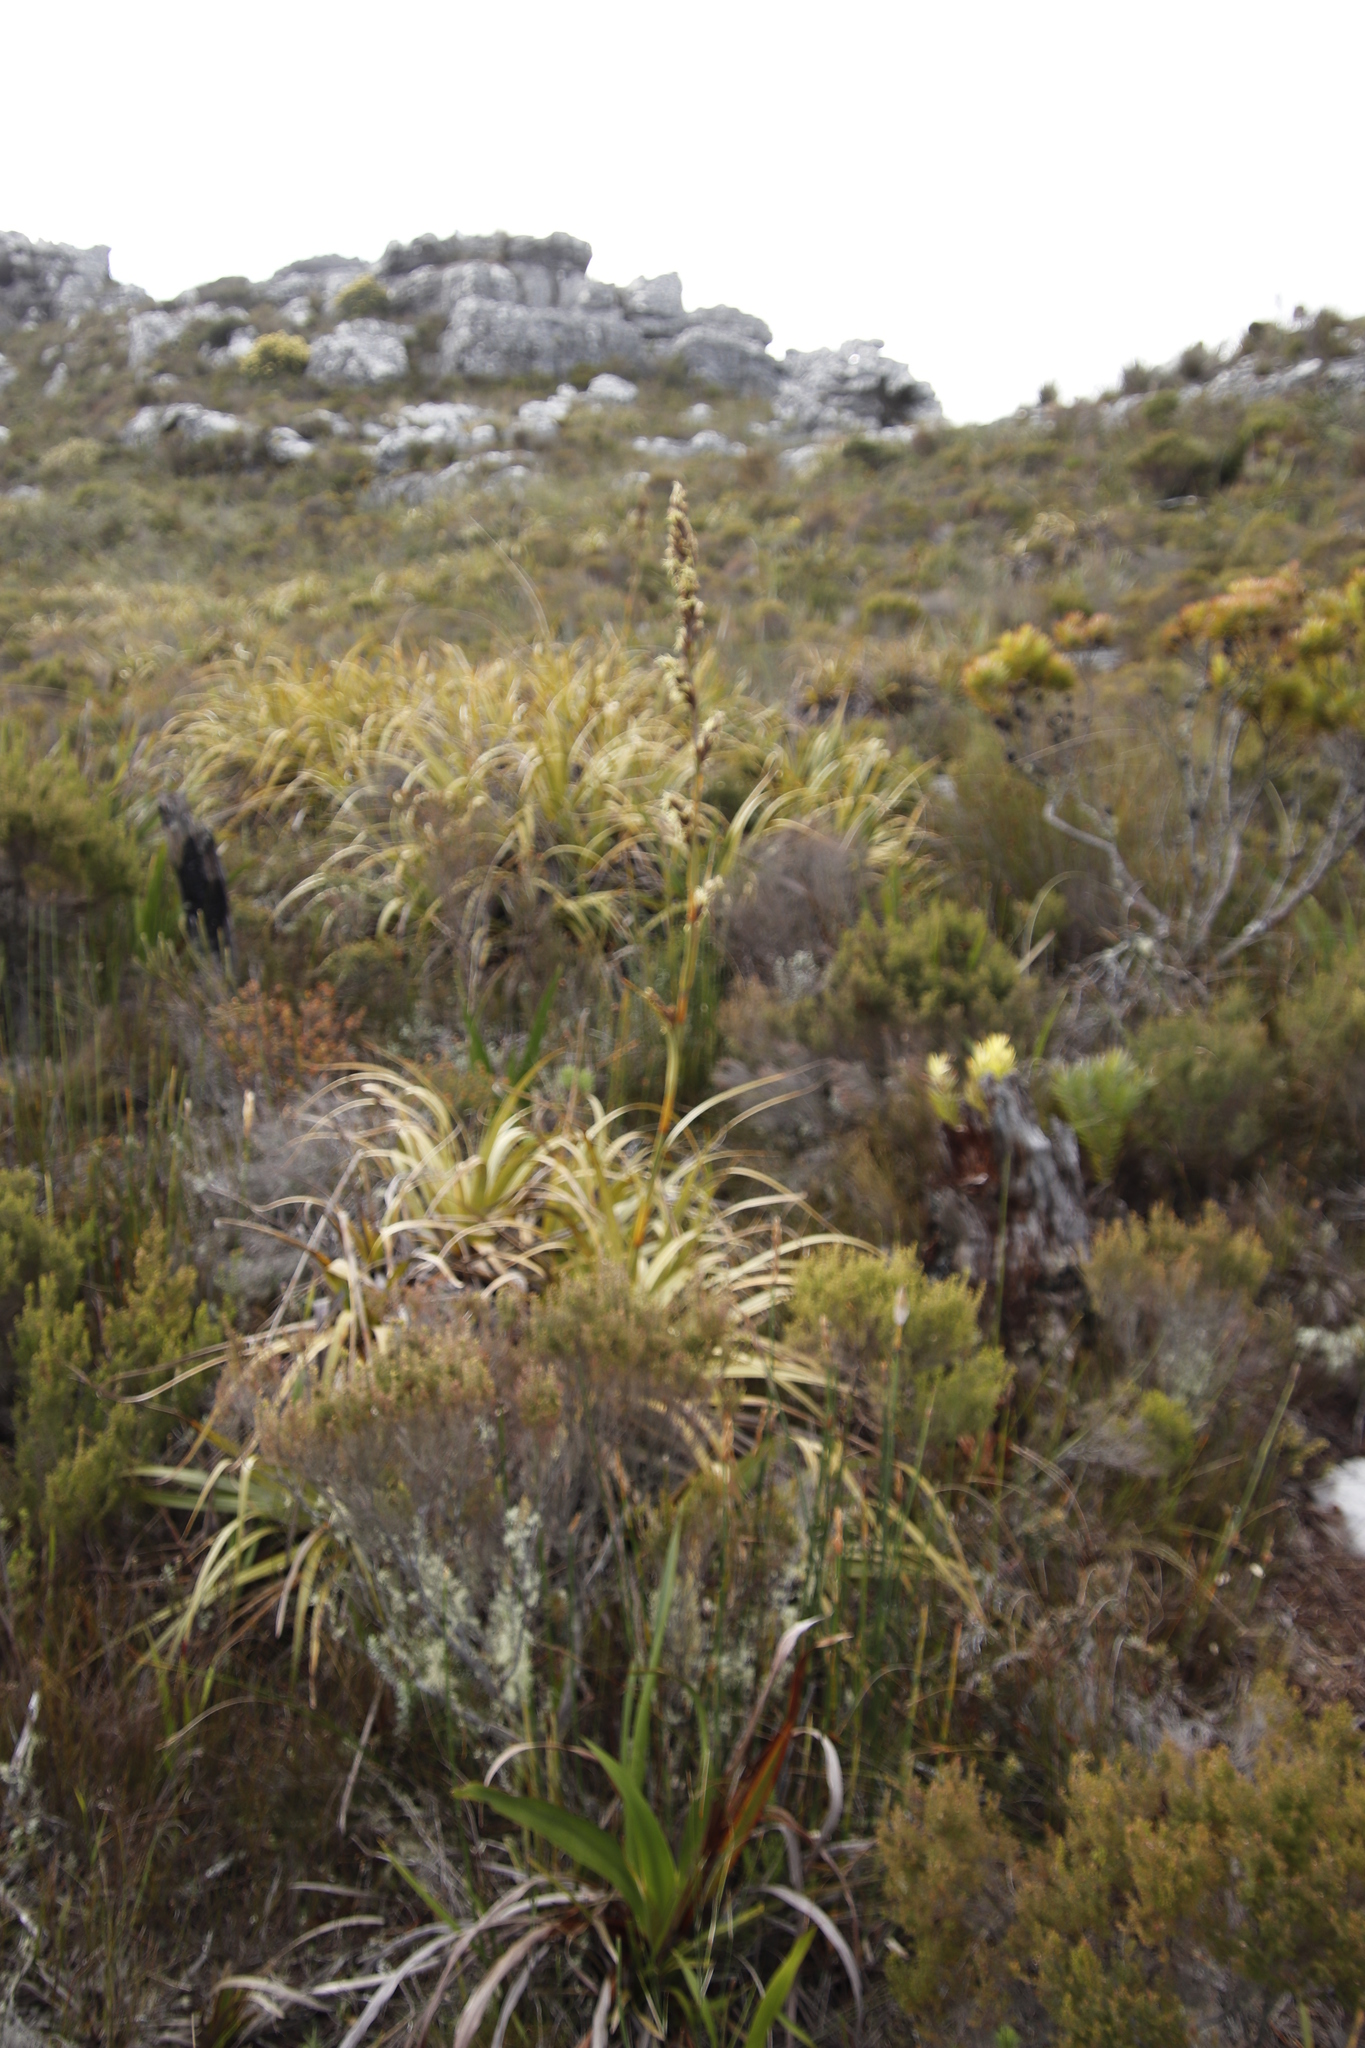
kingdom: Plantae
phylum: Tracheophyta
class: Liliopsida
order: Poales
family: Cyperaceae
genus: Tetraria
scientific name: Tetraria thermalis
